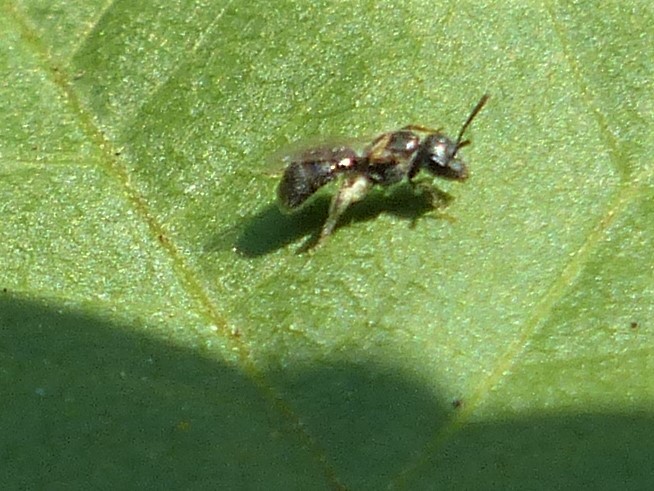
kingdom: Animalia
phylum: Arthropoda
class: Insecta
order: Hymenoptera
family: Halictidae
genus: Dialictus
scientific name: Dialictus
